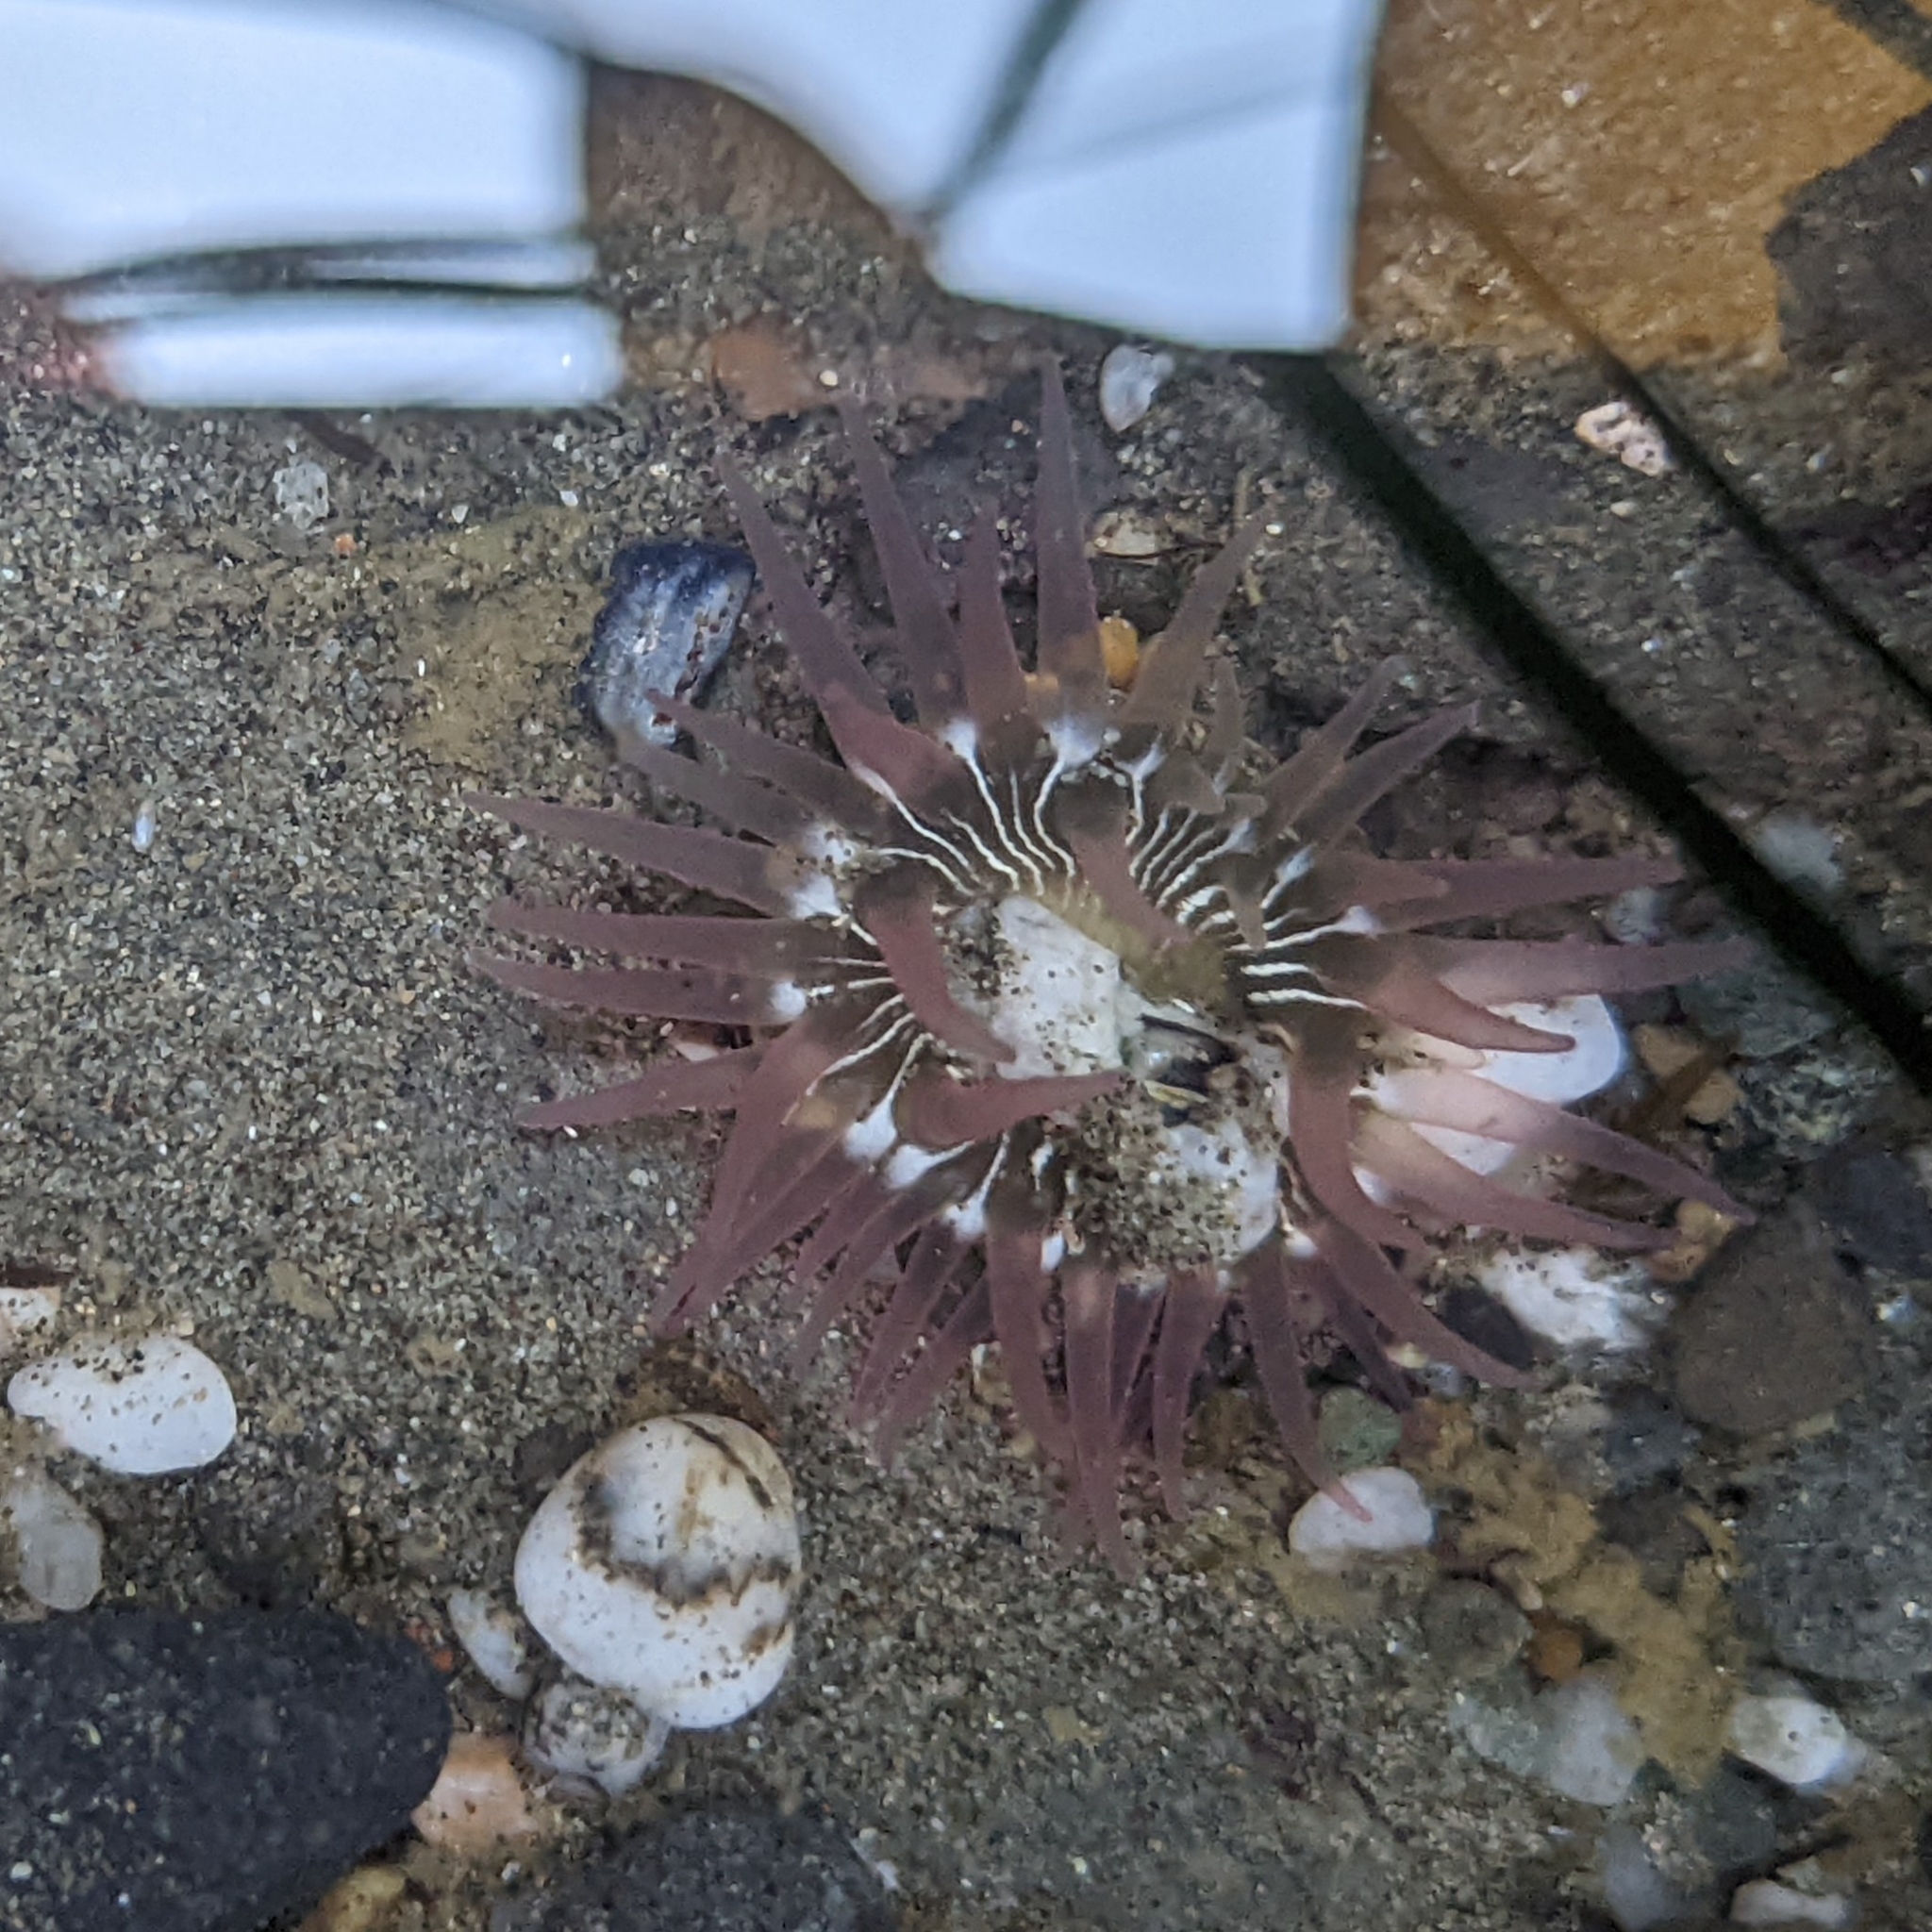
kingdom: Animalia
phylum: Cnidaria
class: Anthozoa
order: Actiniaria
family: Actiniidae
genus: Aulactinia
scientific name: Aulactinia incubans
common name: Incubating anemone
